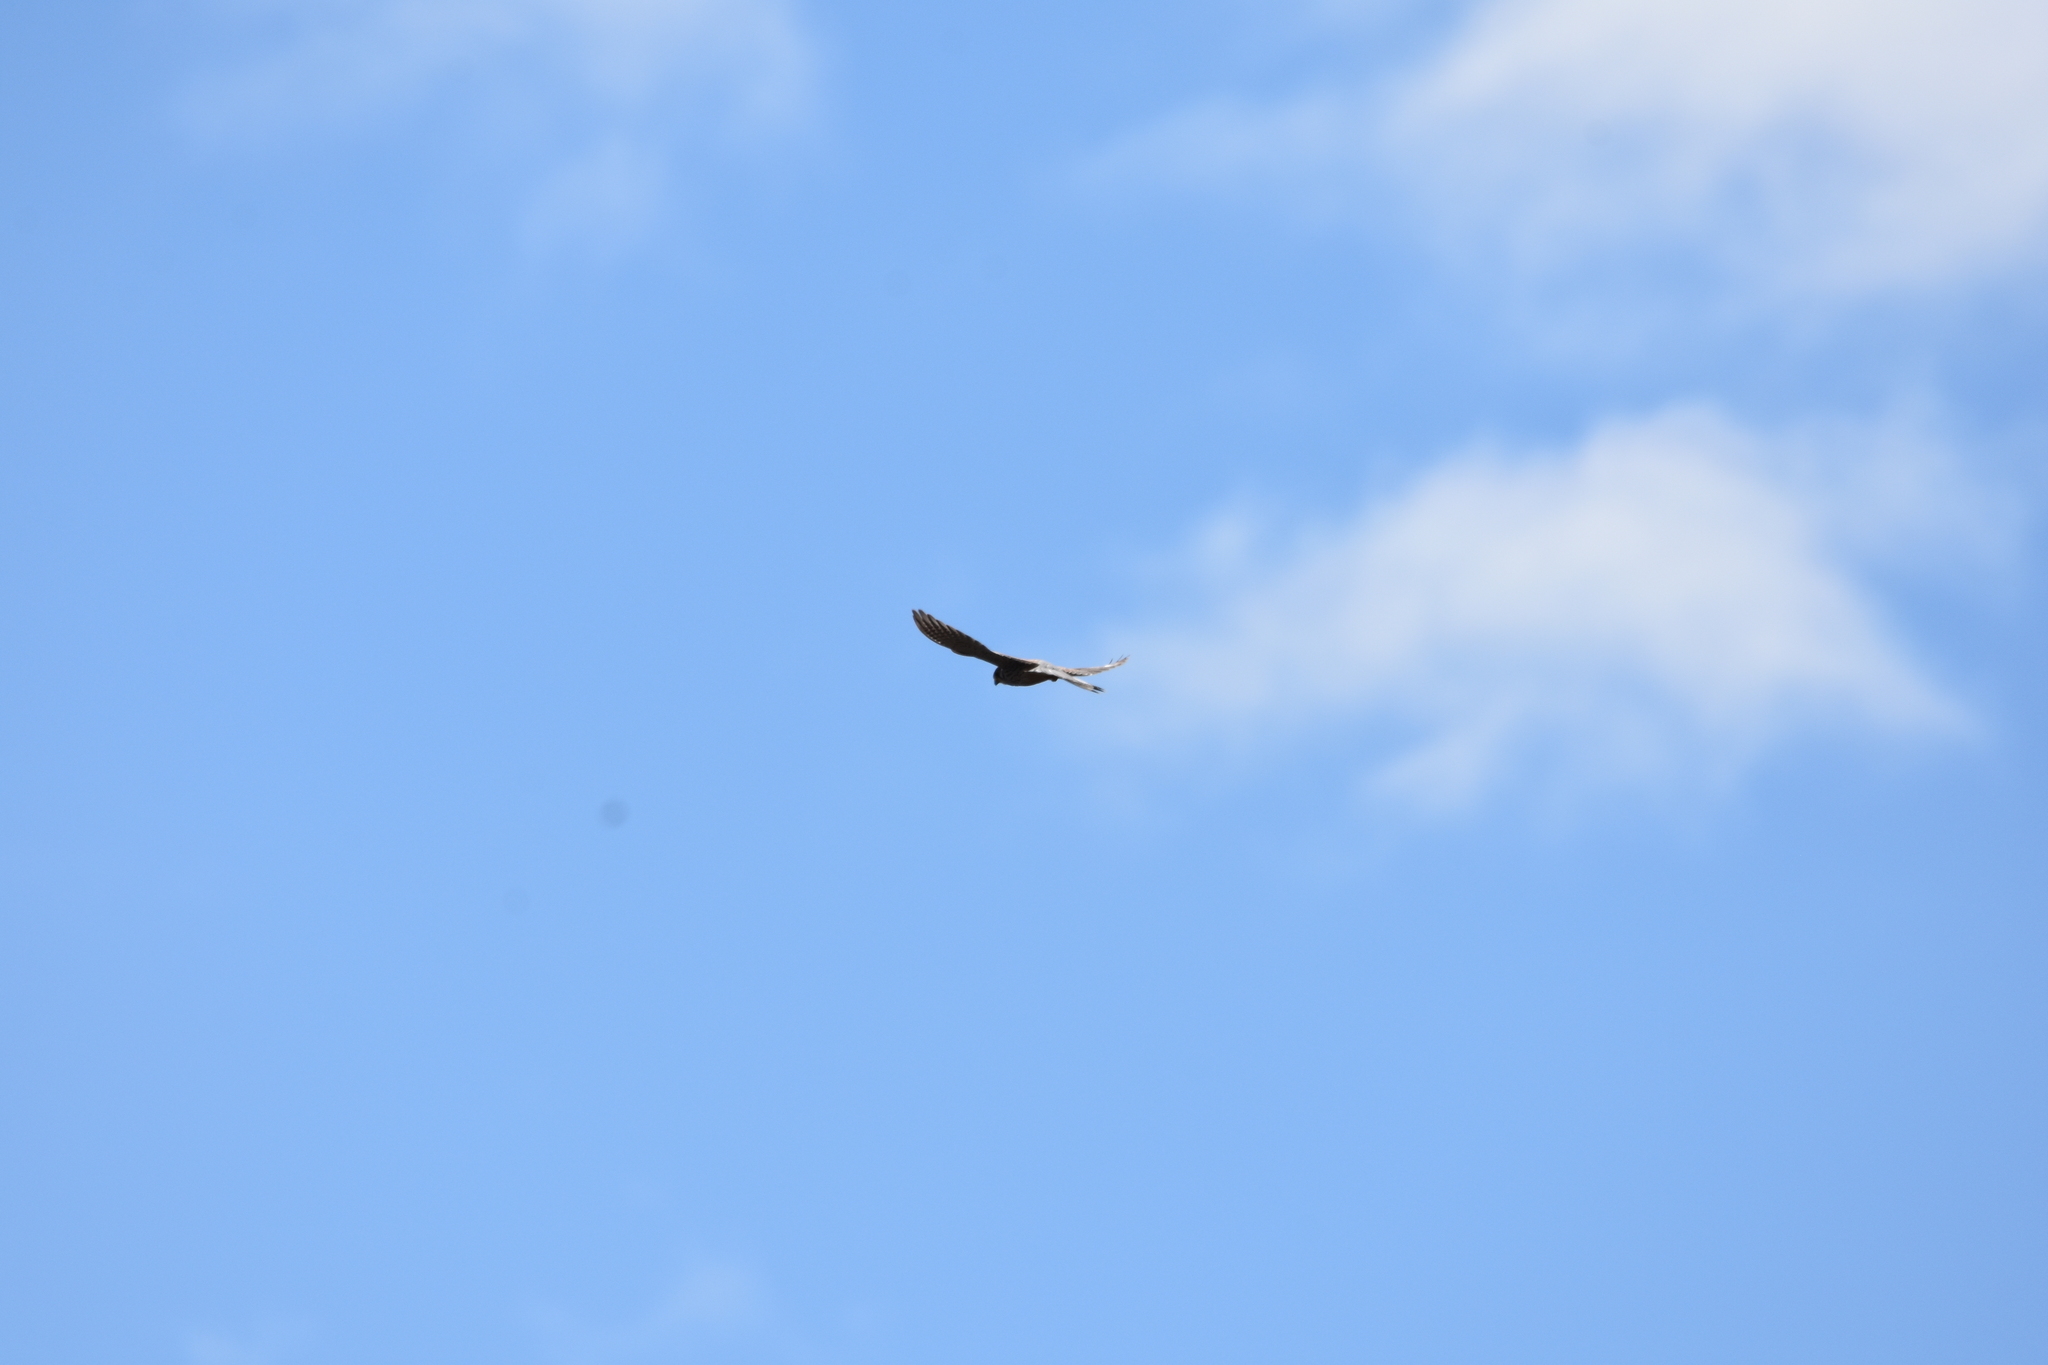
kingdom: Animalia
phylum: Chordata
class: Aves
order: Falconiformes
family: Falconidae
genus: Falco
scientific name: Falco tinnunculus
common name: Common kestrel
